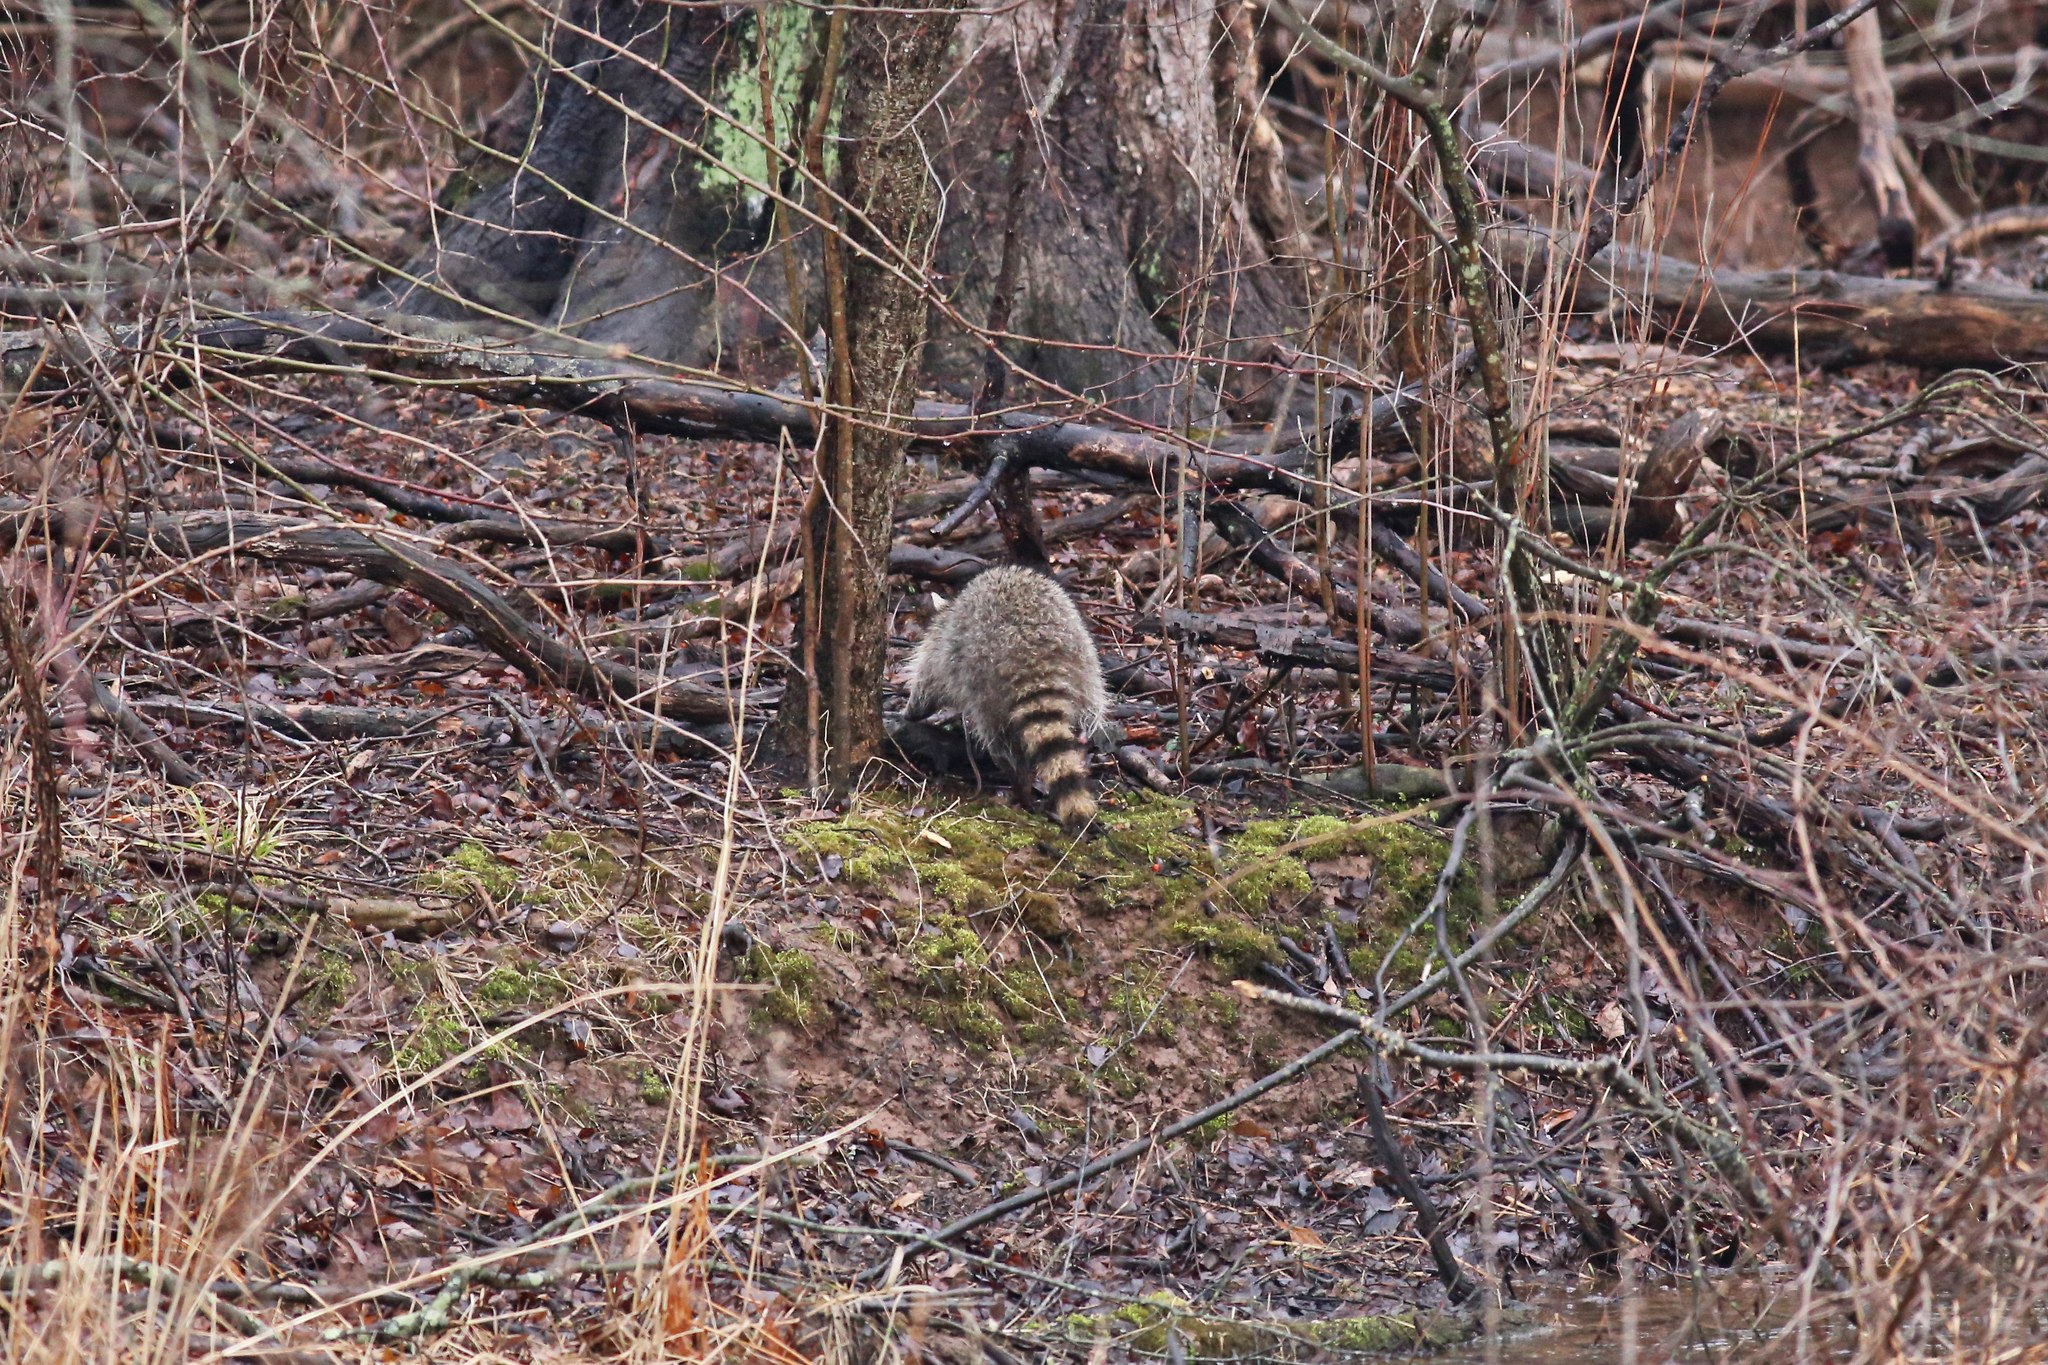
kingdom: Animalia
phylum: Chordata
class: Mammalia
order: Carnivora
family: Procyonidae
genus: Procyon
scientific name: Procyon lotor
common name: Raccoon
